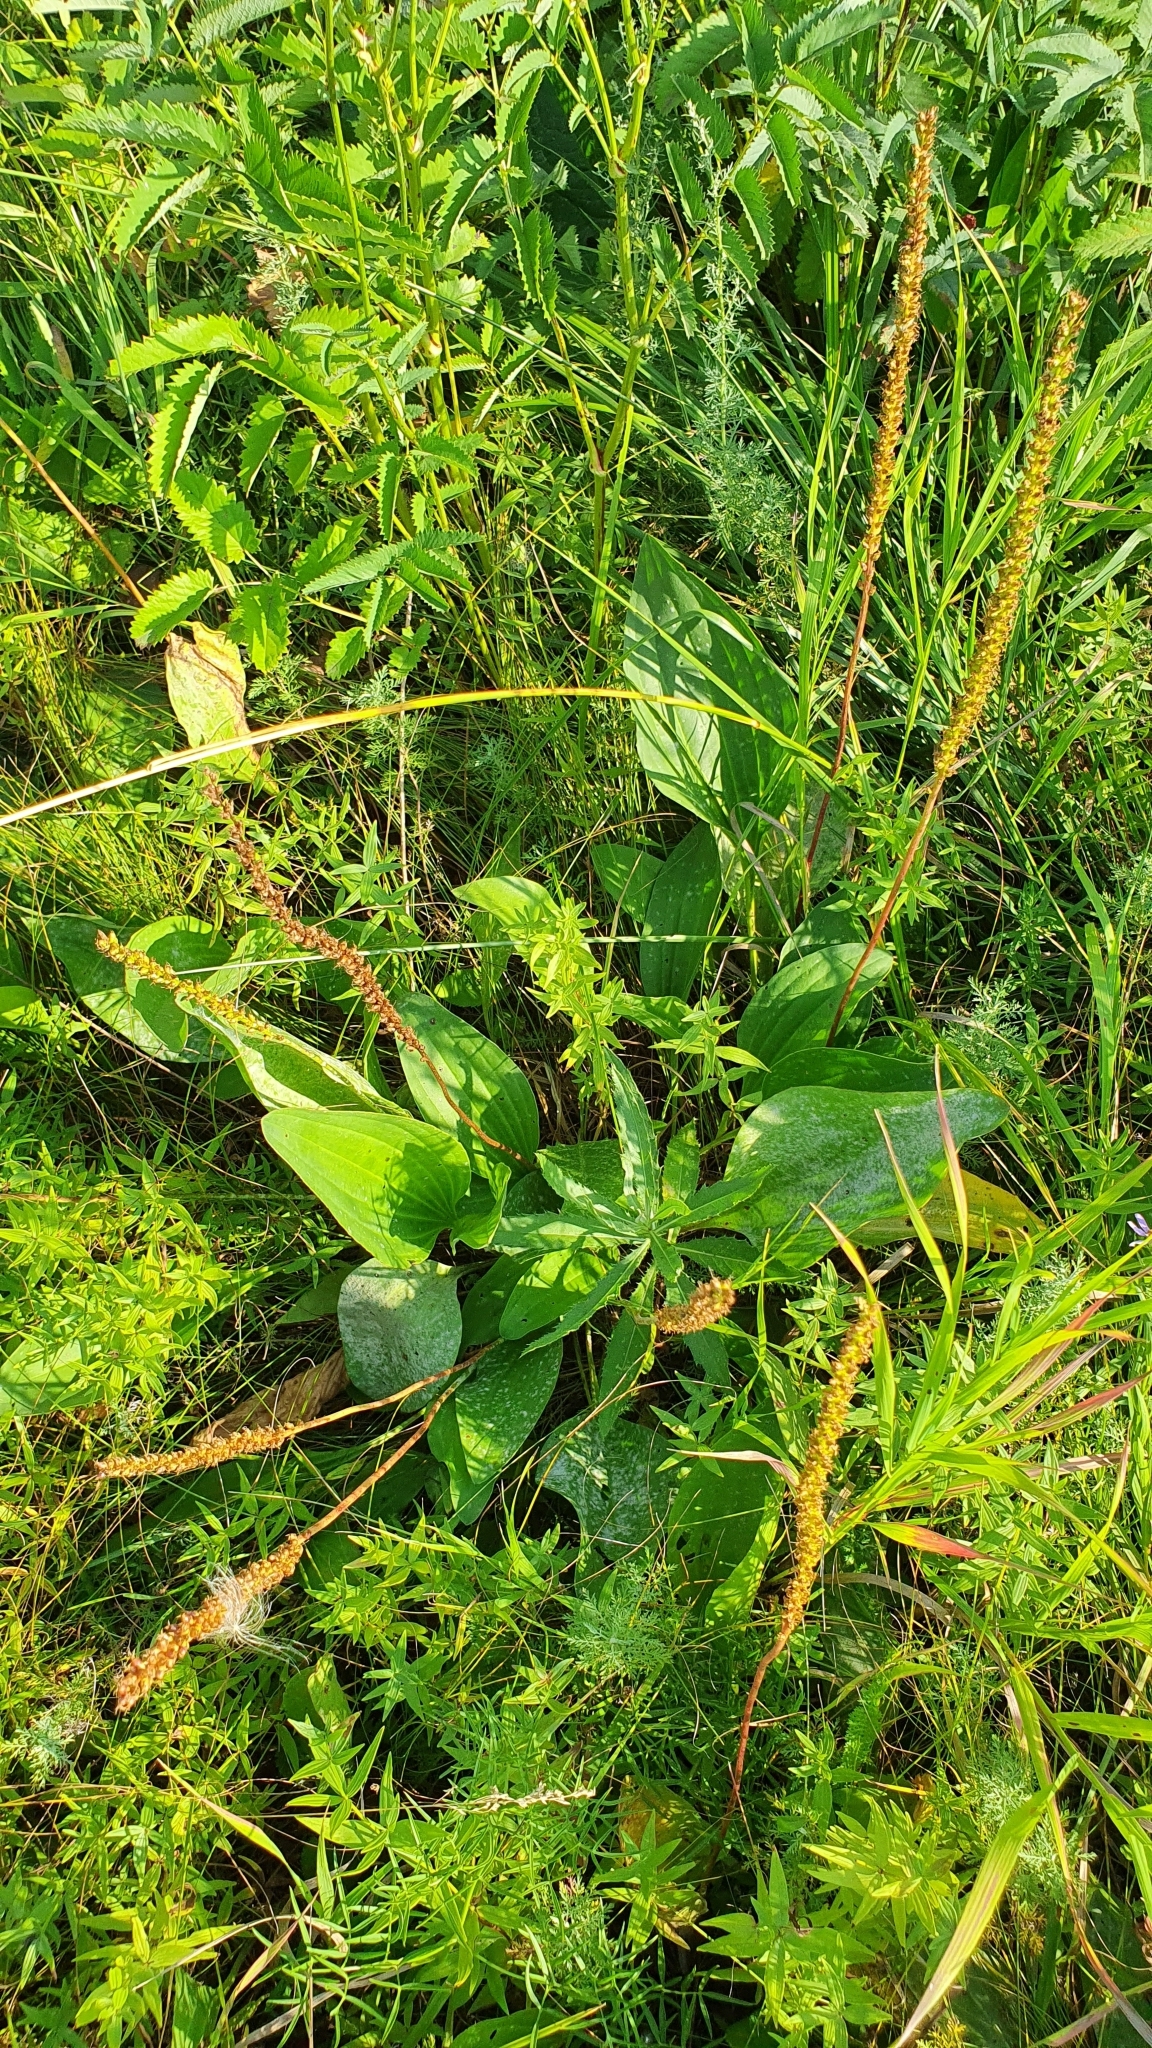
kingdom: Plantae
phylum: Tracheophyta
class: Magnoliopsida
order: Lamiales
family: Plantaginaceae
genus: Plantago
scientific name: Plantago cornuti
